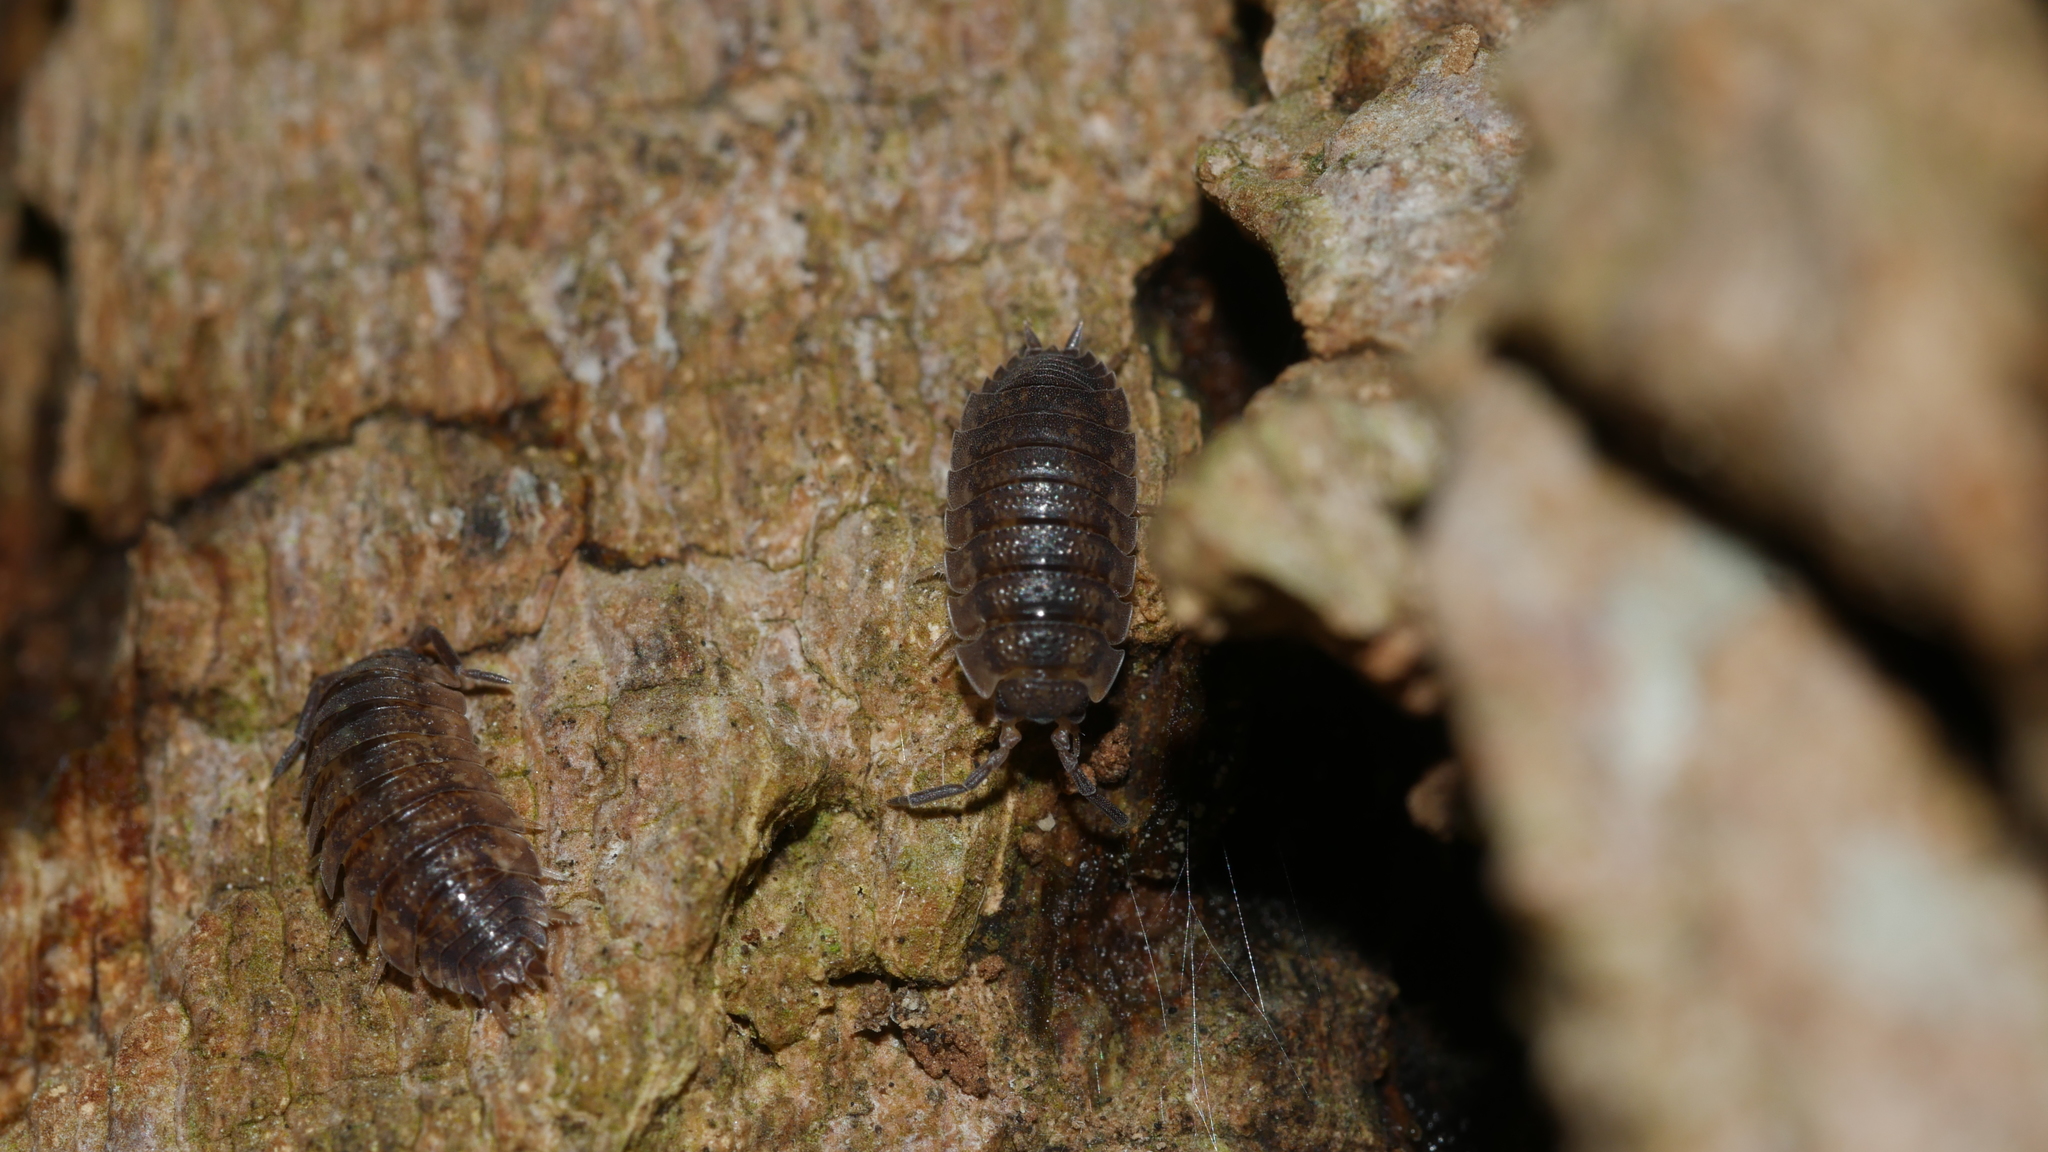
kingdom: Animalia
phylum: Arthropoda
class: Malacostraca
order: Isopoda
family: Porcellionidae
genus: Porcellio
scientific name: Porcellio scaber
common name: Common rough woodlouse
